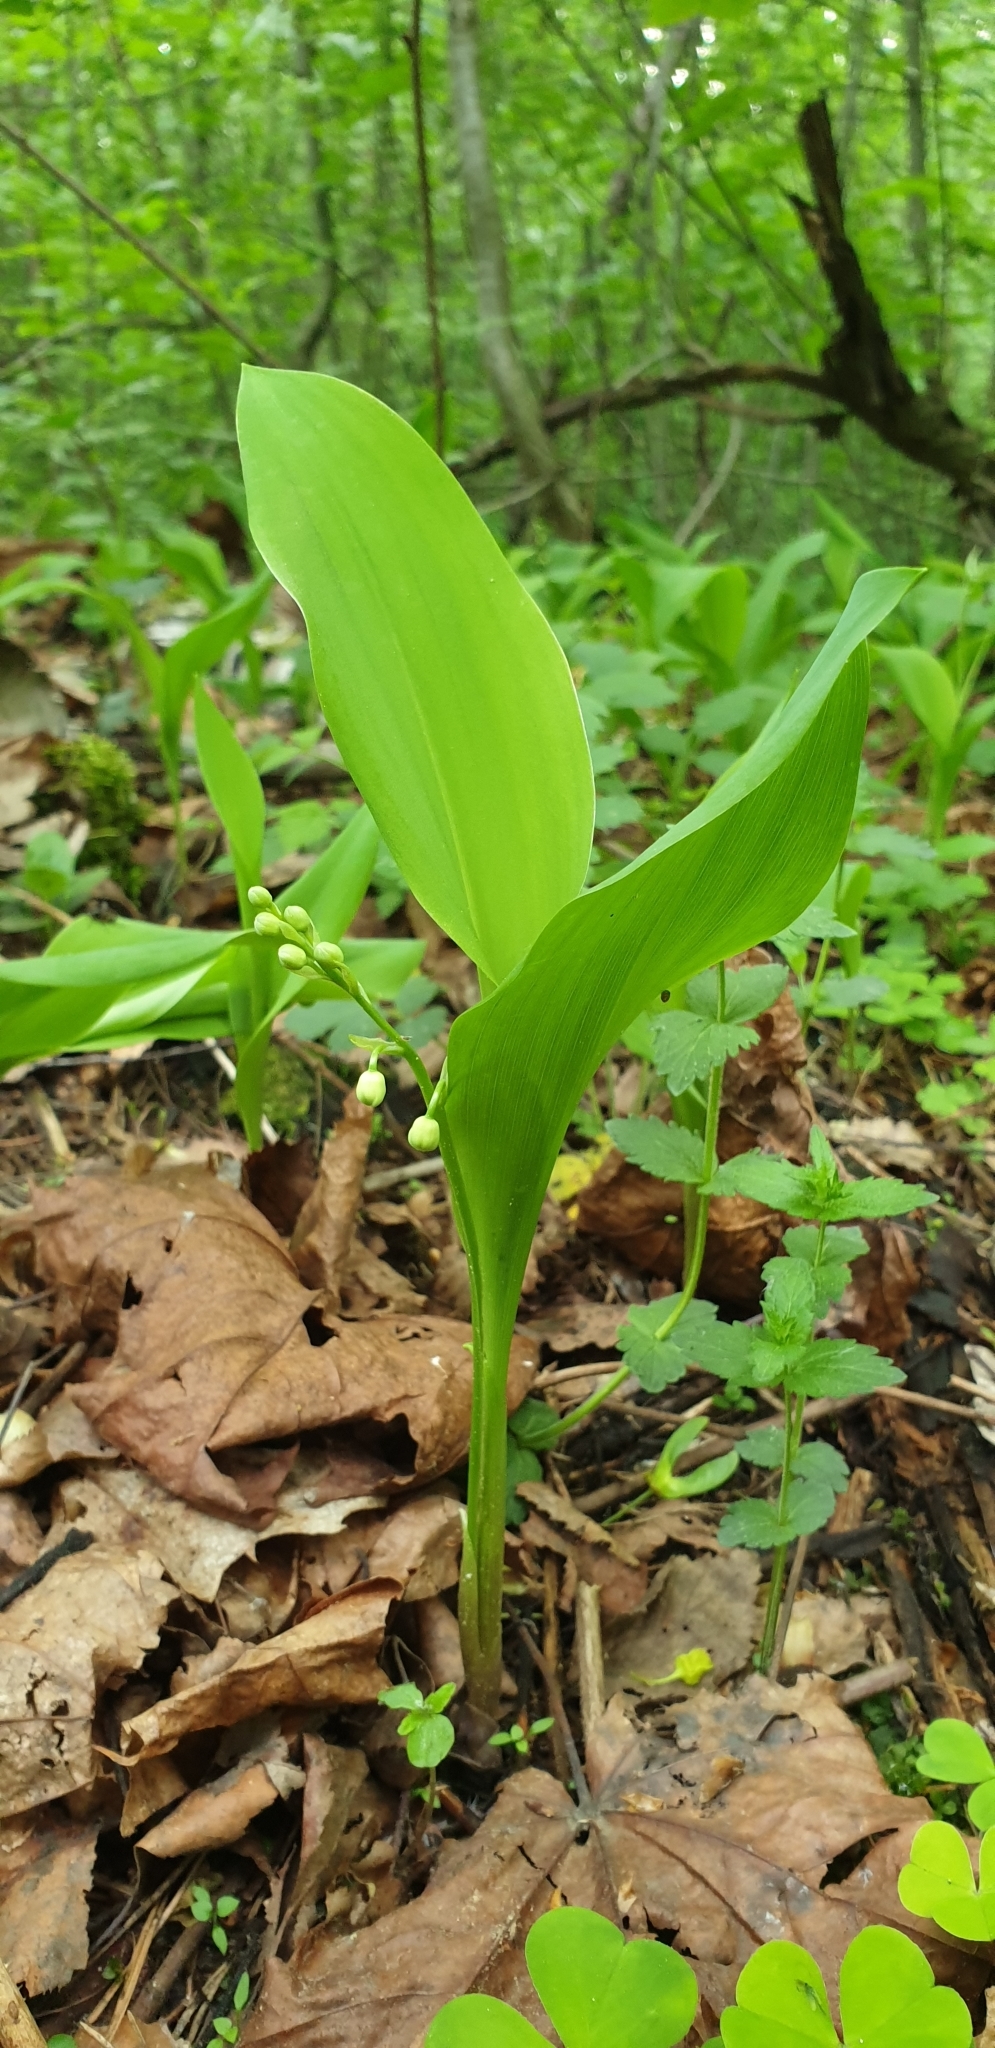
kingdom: Plantae
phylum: Tracheophyta
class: Liliopsida
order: Asparagales
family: Asparagaceae
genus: Convallaria
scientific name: Convallaria majalis
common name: Lily-of-the-valley
